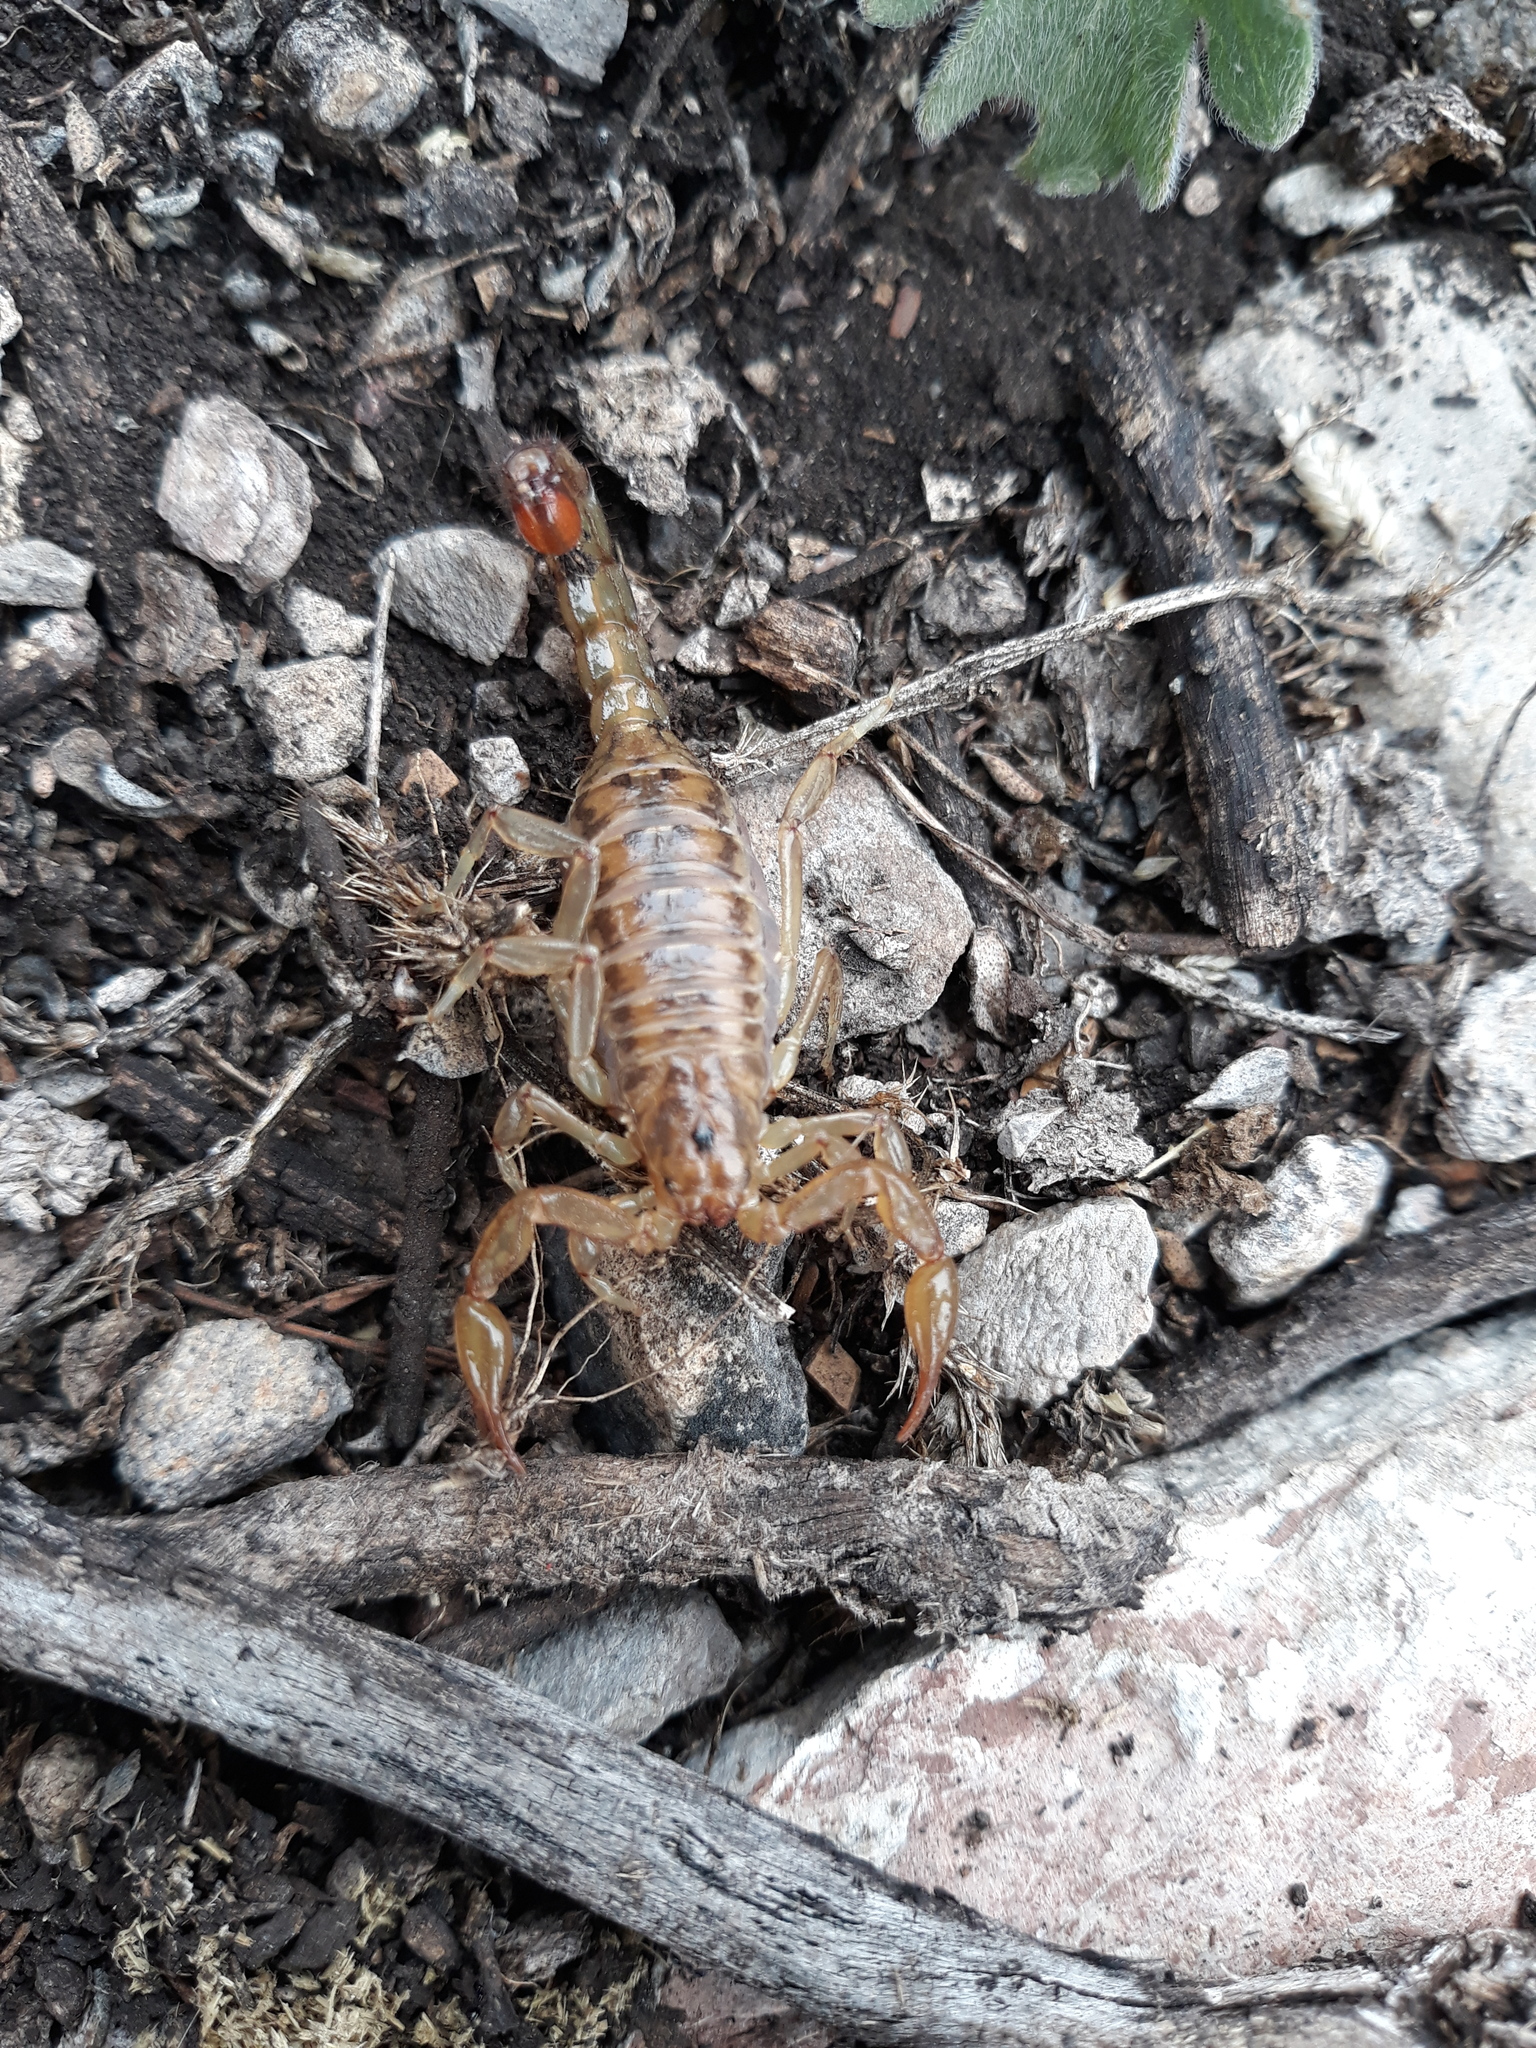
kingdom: Animalia
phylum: Arthropoda
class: Arachnida
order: Scorpiones
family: Vaejovidae
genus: Mesomexovis
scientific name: Mesomexovis punctatus
